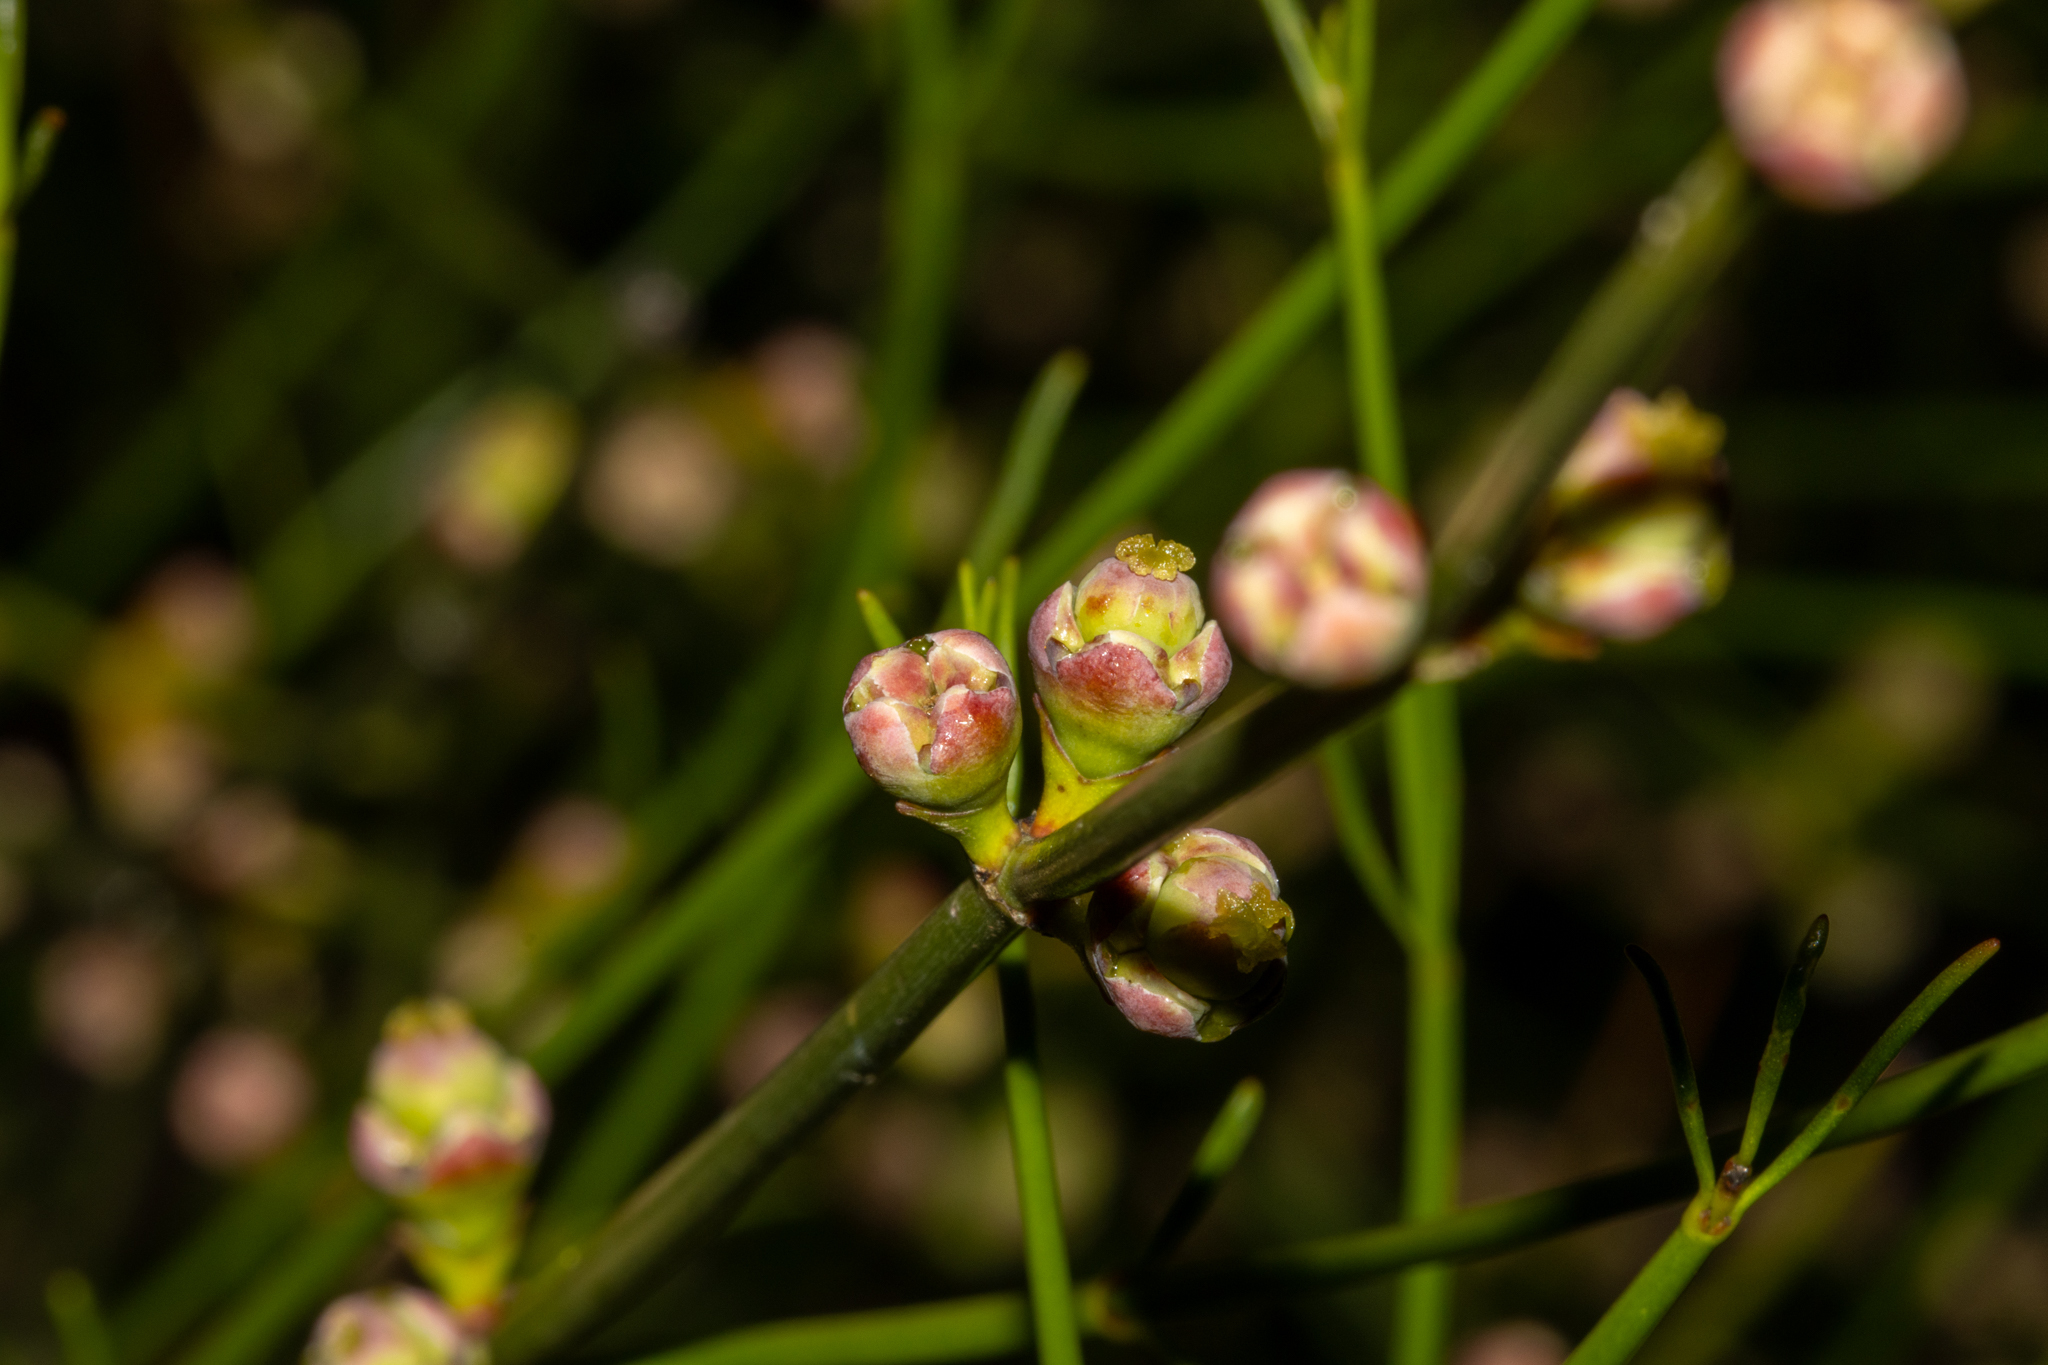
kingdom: Plantae
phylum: Tracheophyta
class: Magnoliopsida
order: Malpighiales
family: Euphorbiaceae
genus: Calycopeplus
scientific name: Calycopeplus paucifolius
